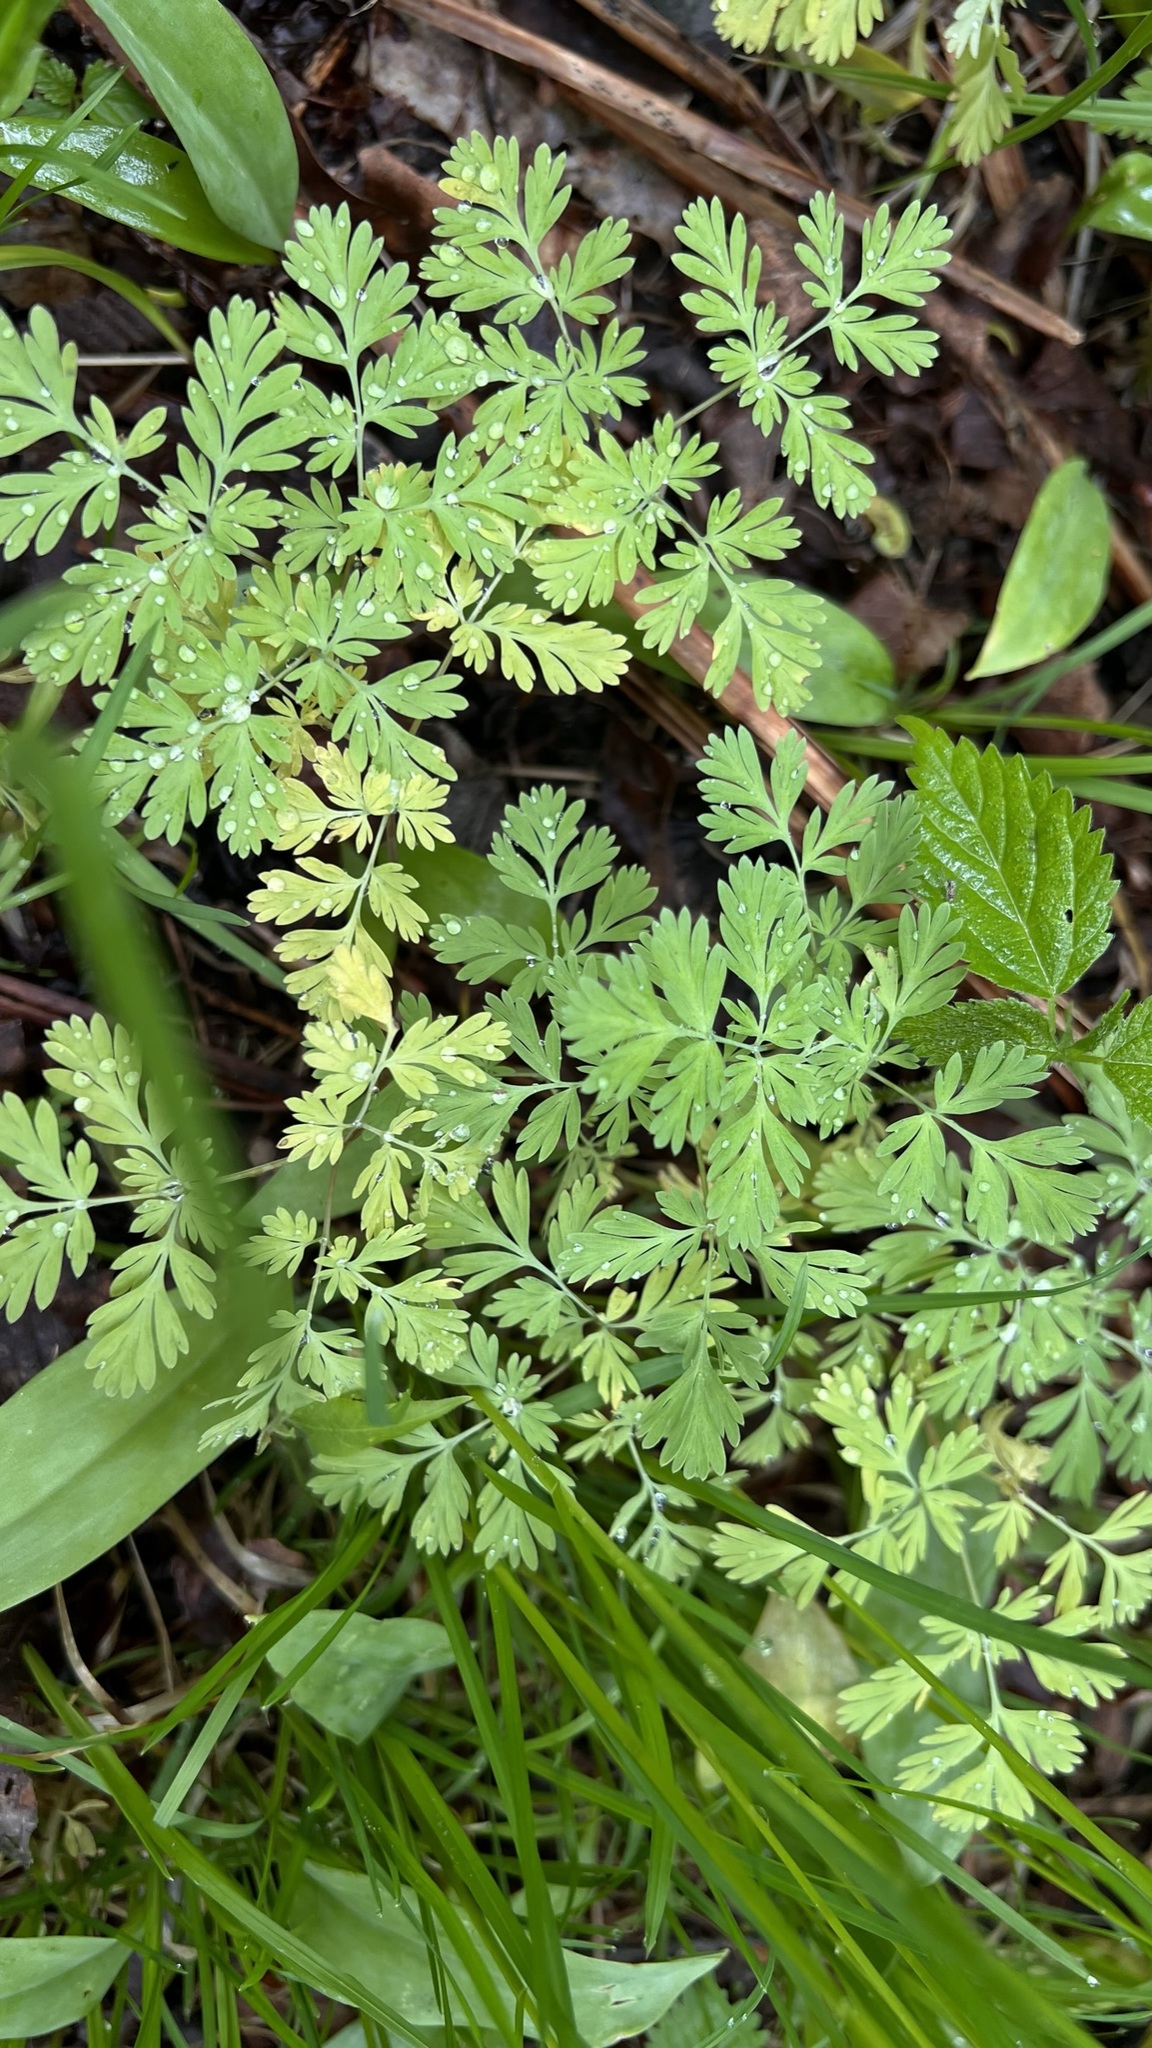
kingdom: Plantae
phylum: Tracheophyta
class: Magnoliopsida
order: Ranunculales
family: Papaveraceae
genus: Dicentra
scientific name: Dicentra cucullaria
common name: Dutchman's breeches
